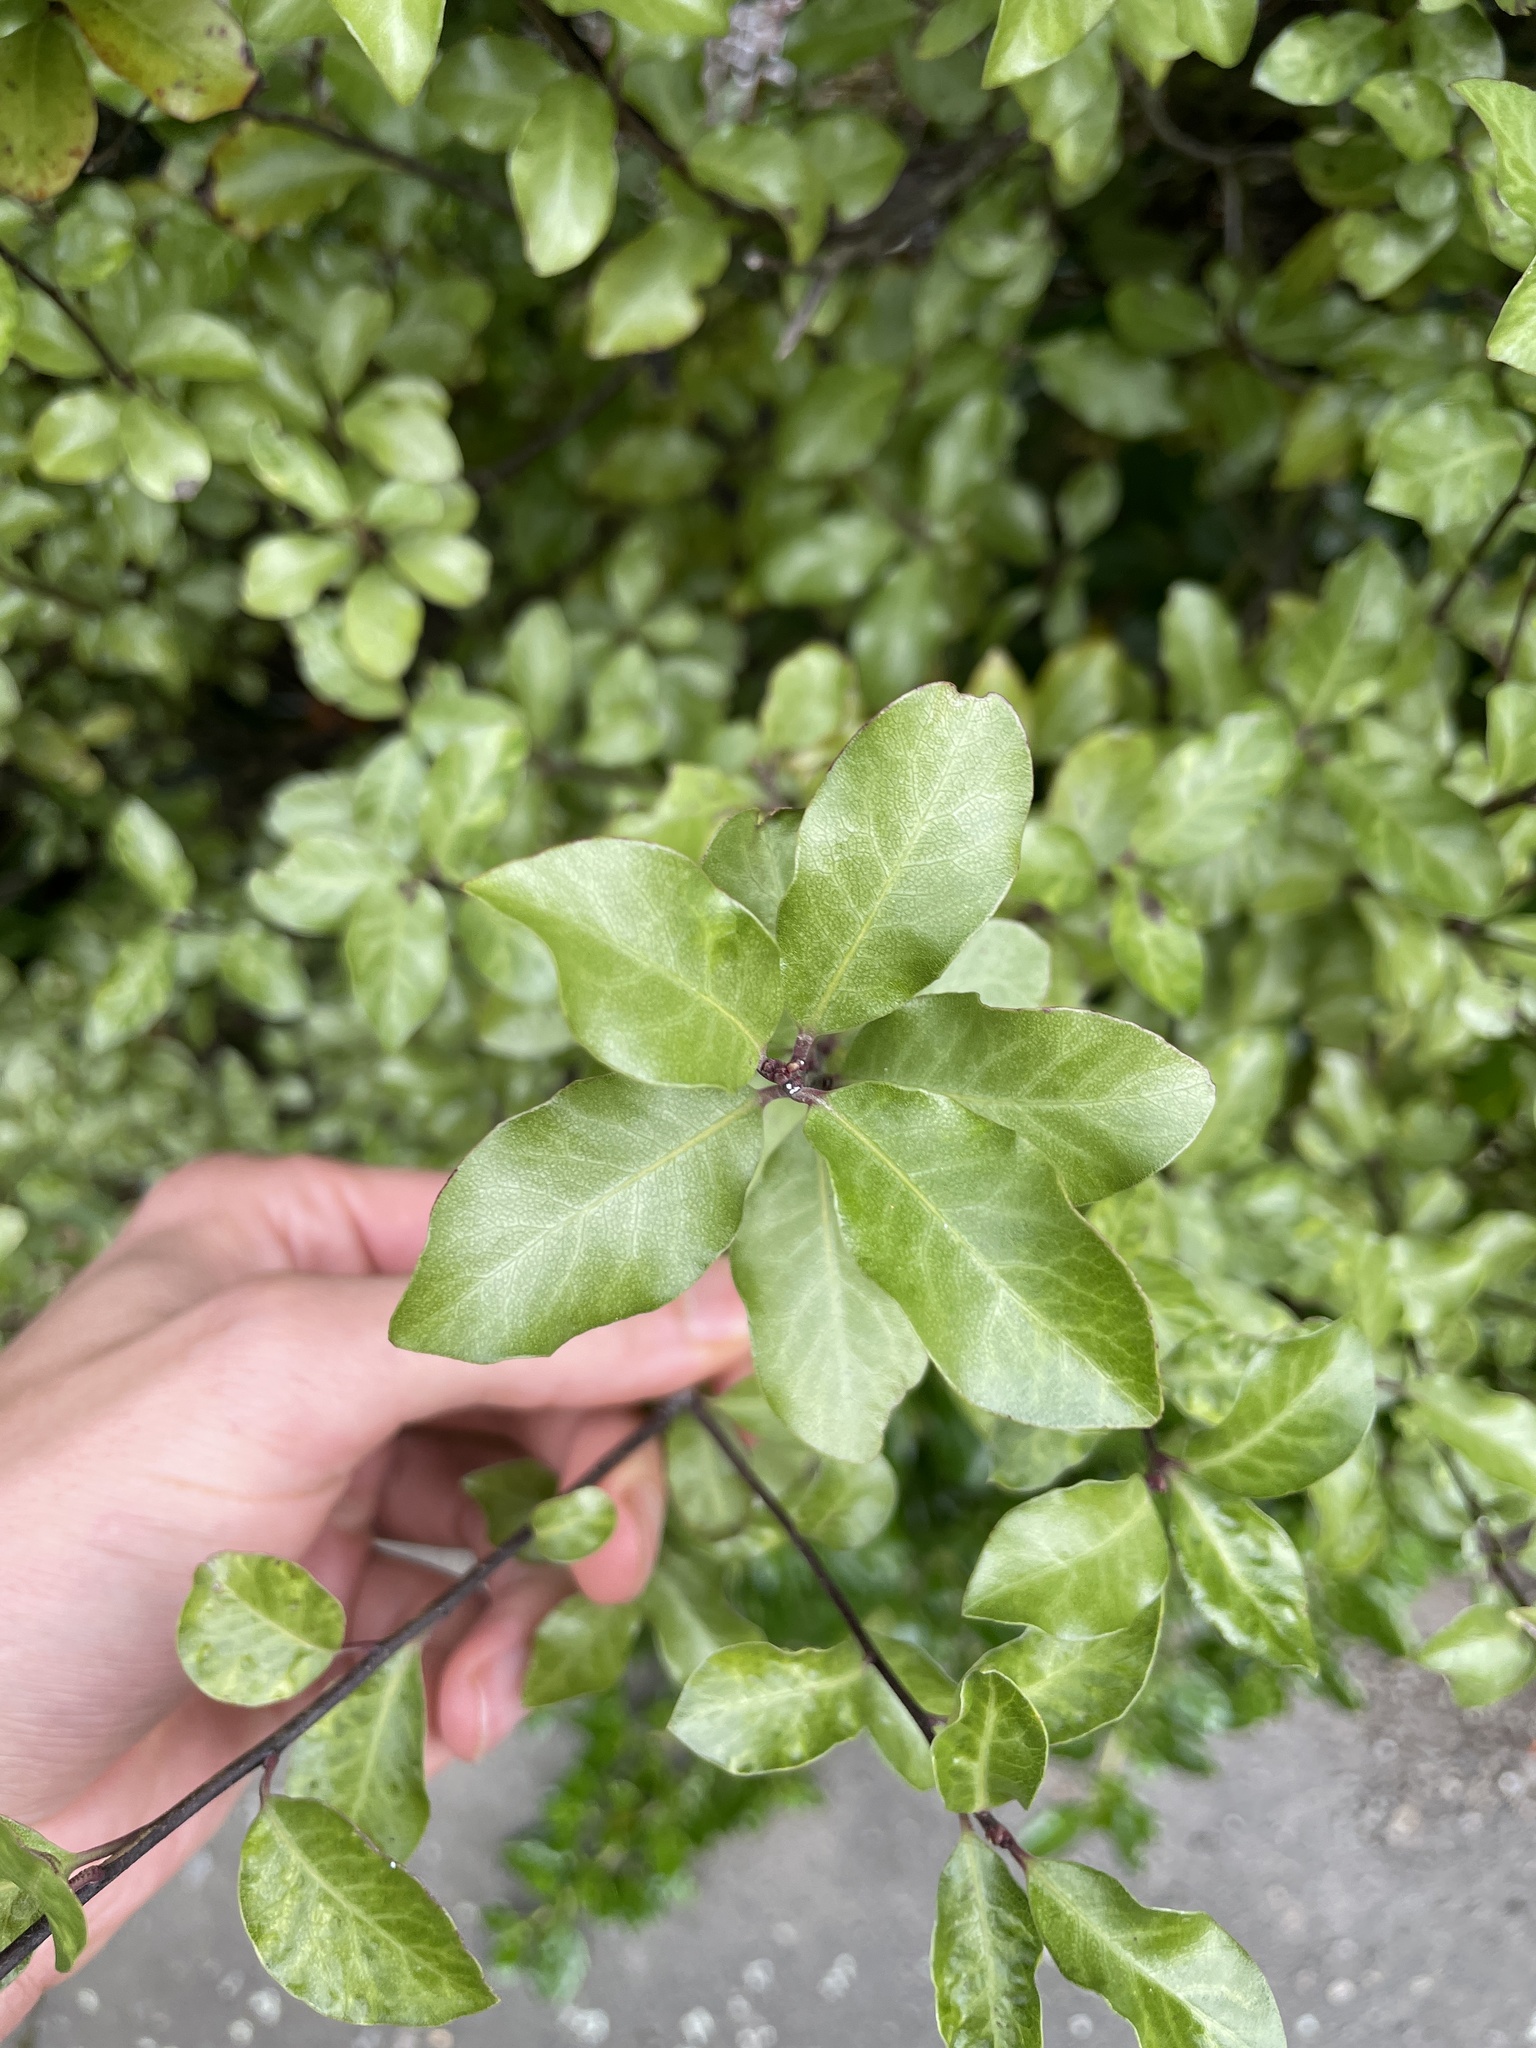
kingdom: Plantae
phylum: Tracheophyta
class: Magnoliopsida
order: Apiales
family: Pittosporaceae
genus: Pittosporum
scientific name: Pittosporum tenuifolium
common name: Kohuhu
